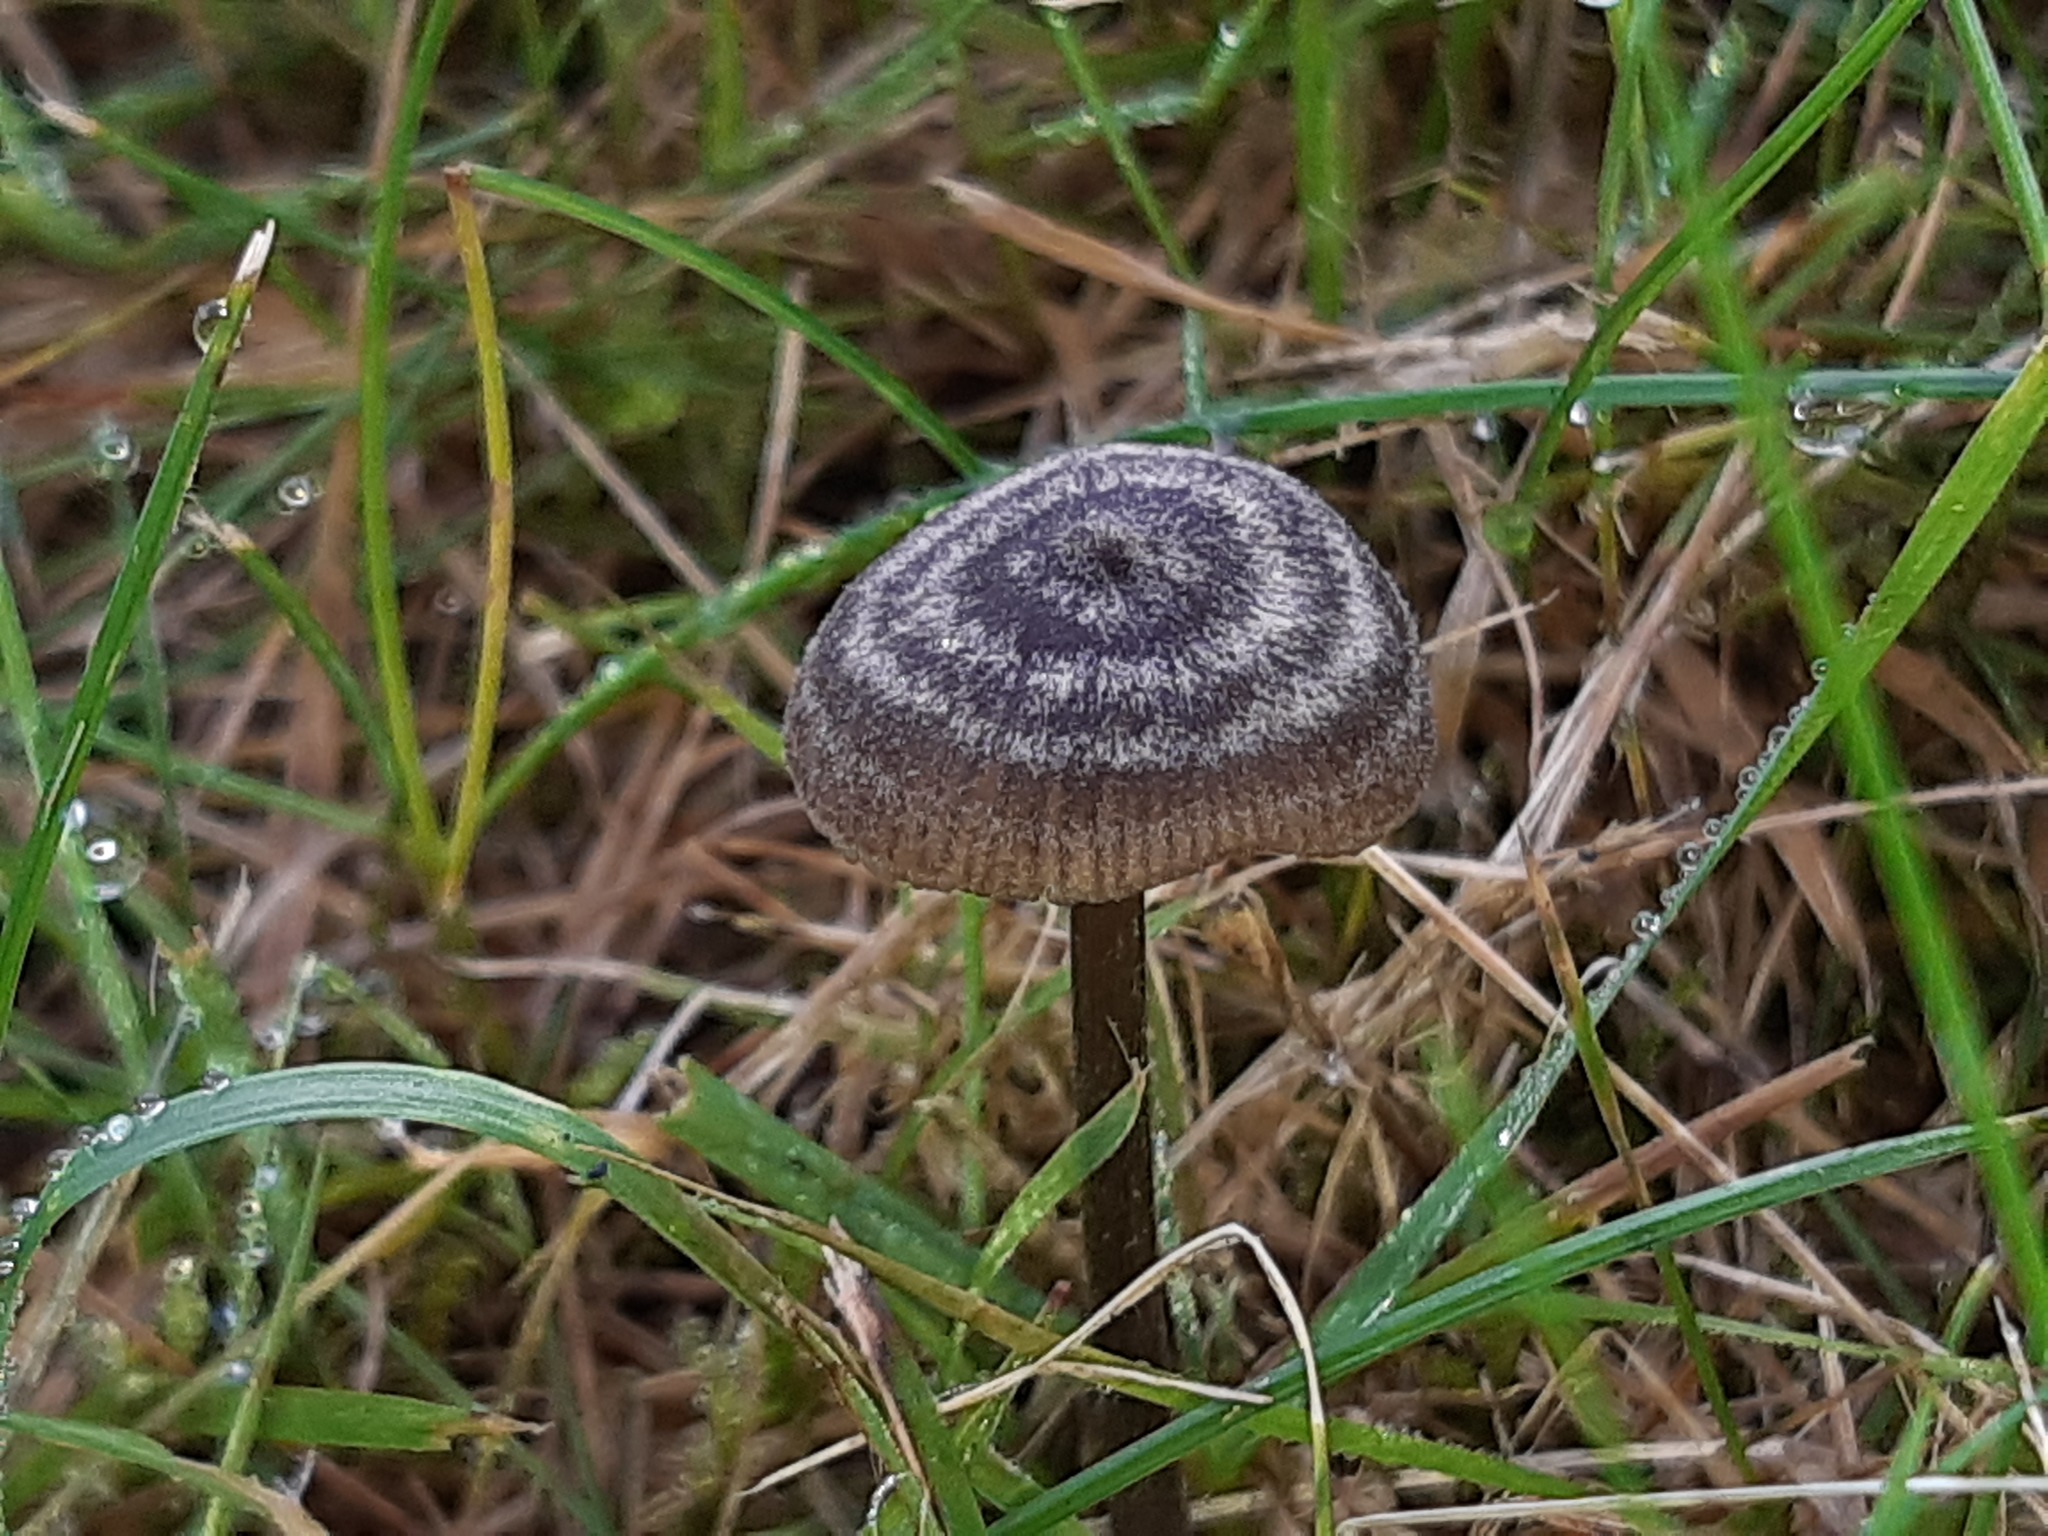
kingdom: Fungi
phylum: Basidiomycota
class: Agaricomycetes
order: Agaricales
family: Entolomataceae
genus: Entoloma
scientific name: Entoloma perzonatum
